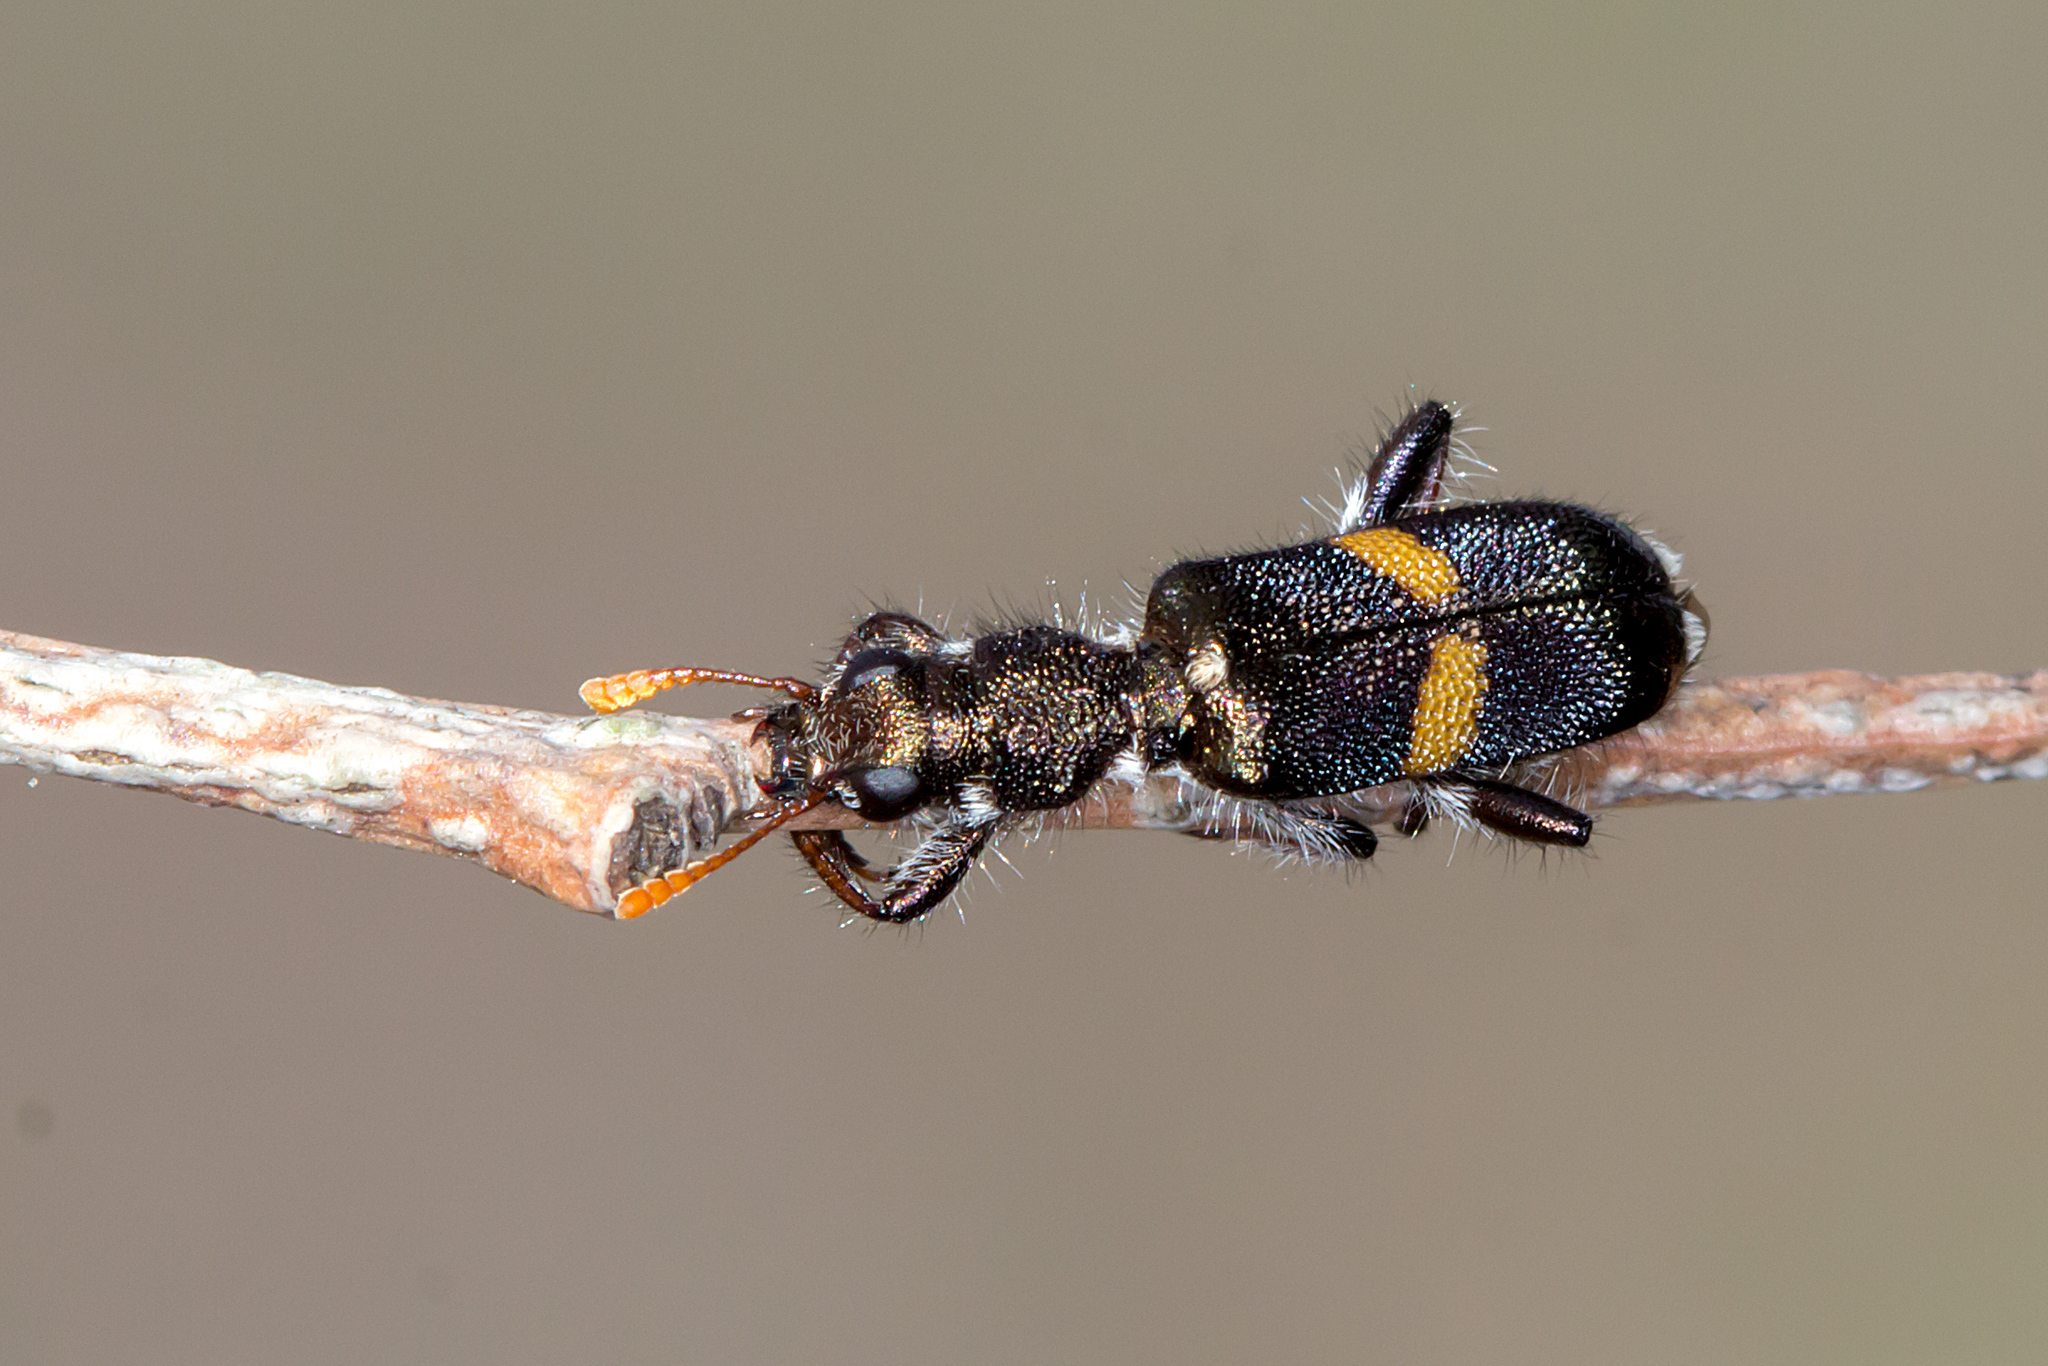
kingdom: Animalia
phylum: Arthropoda
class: Insecta
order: Coleoptera
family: Cleridae
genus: Eleale
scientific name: Eleale
